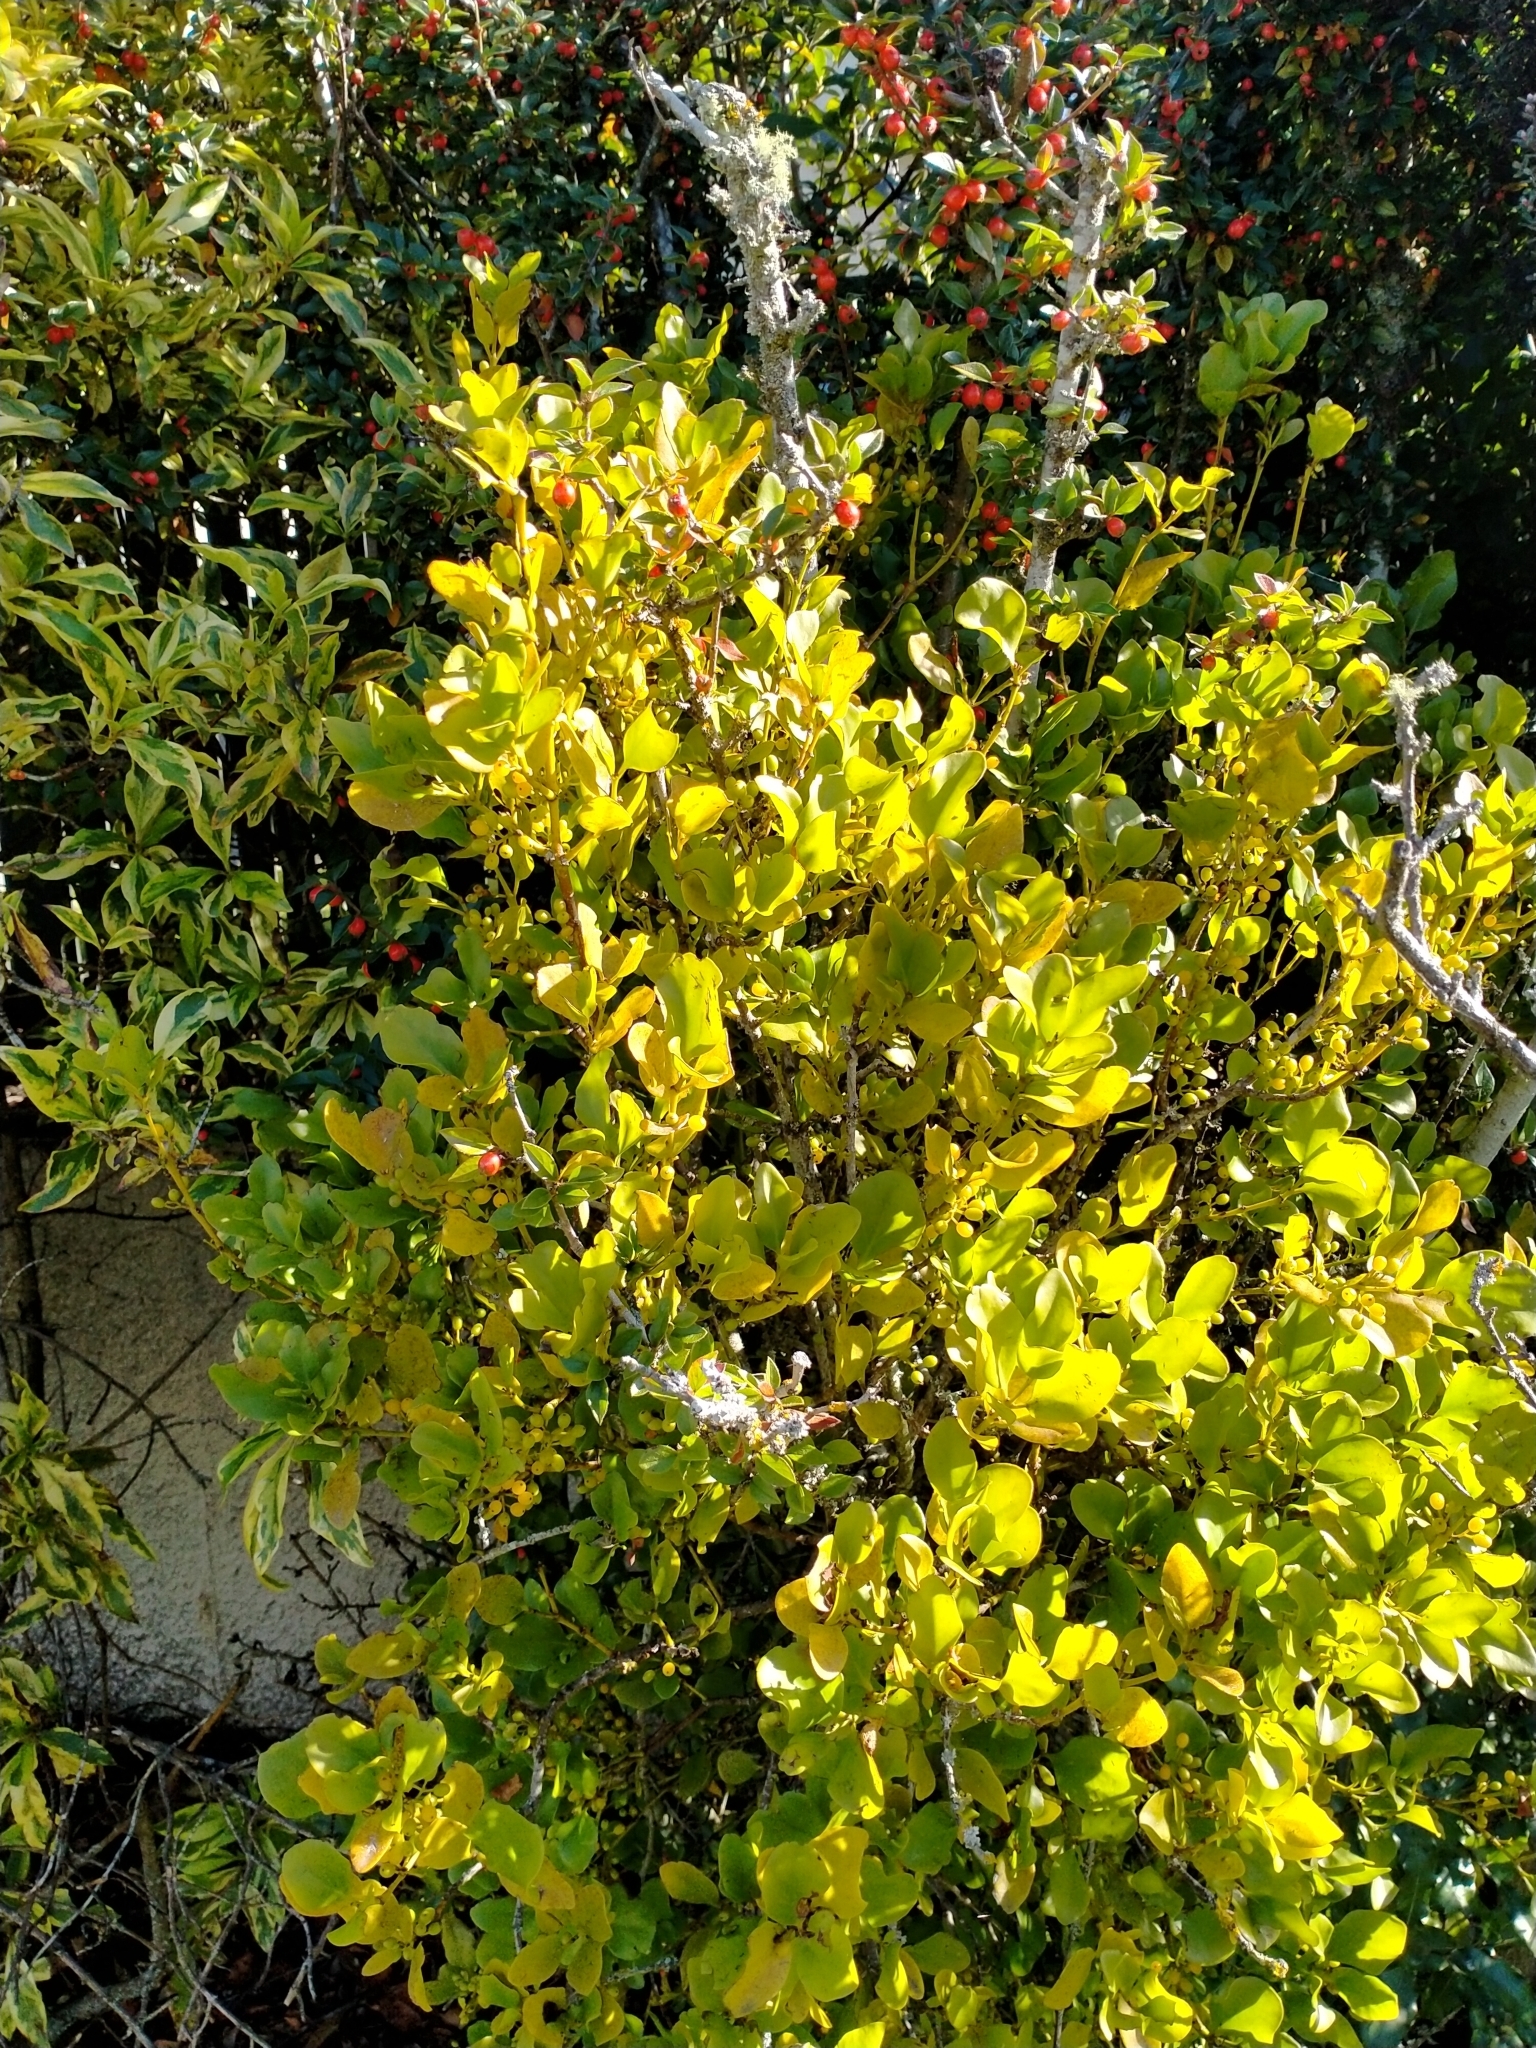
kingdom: Plantae
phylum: Tracheophyta
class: Magnoliopsida
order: Santalales
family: Loranthaceae
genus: Ileostylus
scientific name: Ileostylus micranthus
